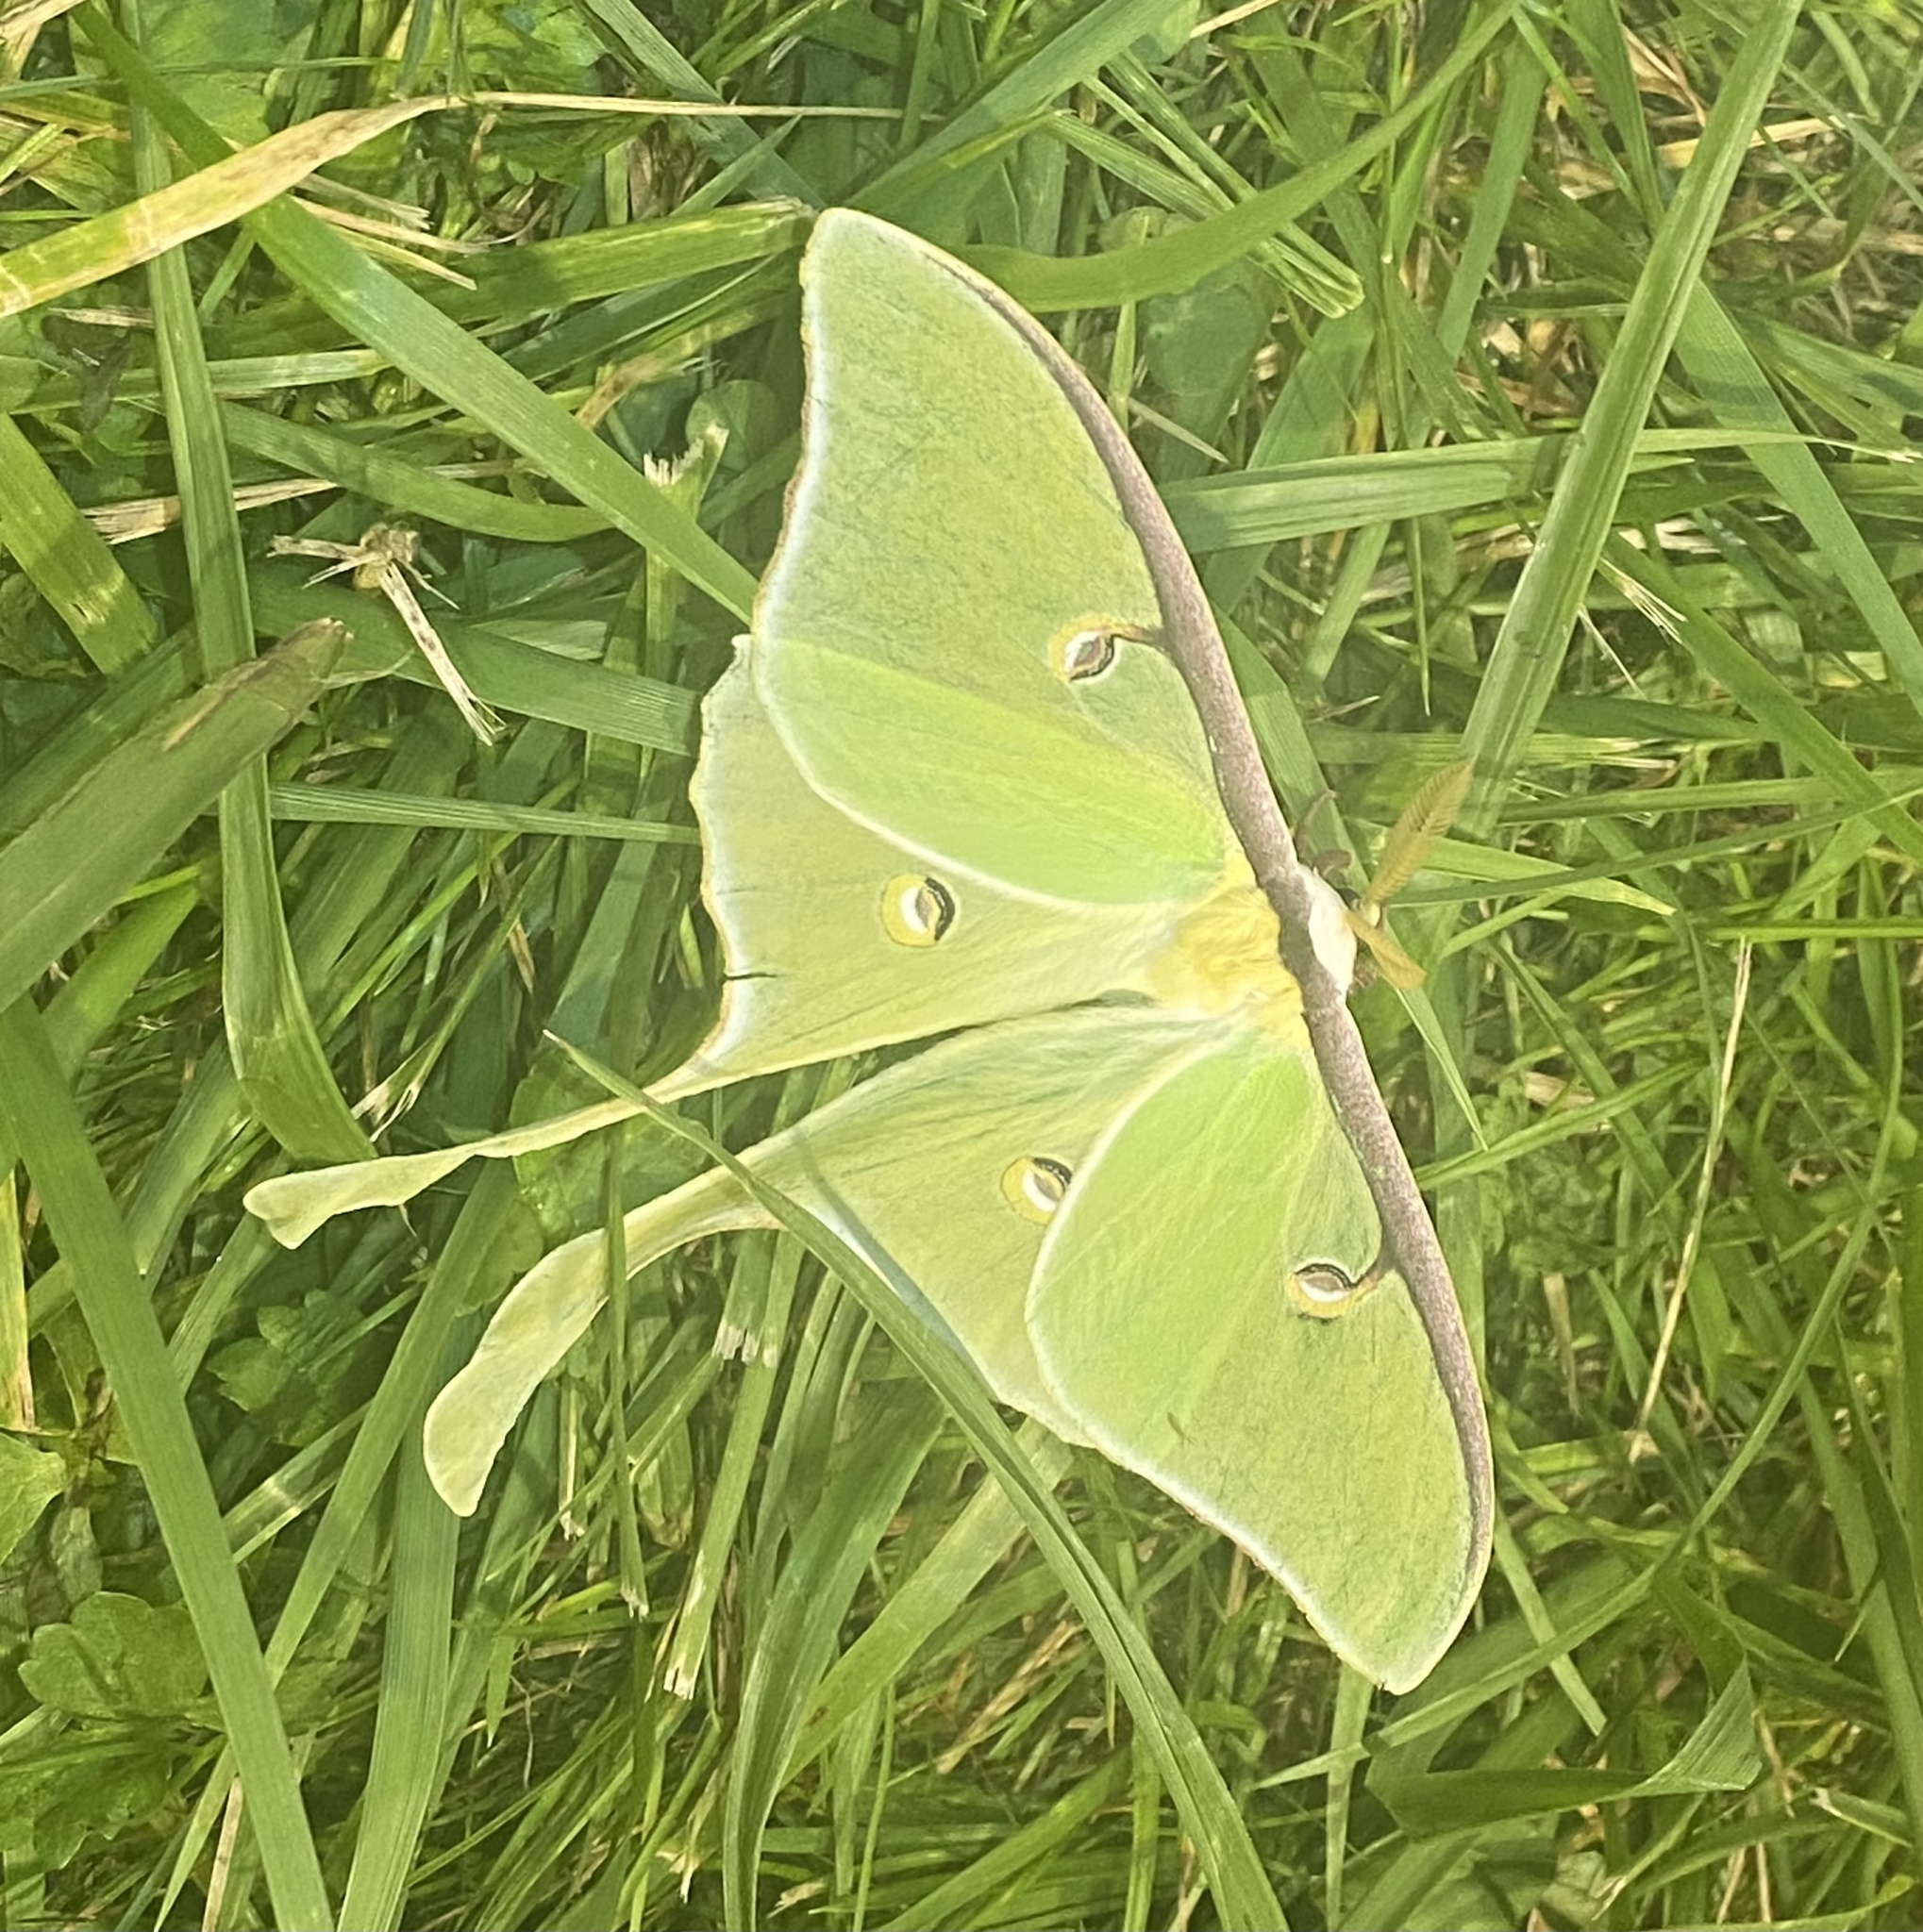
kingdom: Animalia
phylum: Arthropoda
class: Insecta
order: Lepidoptera
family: Saturniidae
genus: Actias
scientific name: Actias luna
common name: Luna moth
